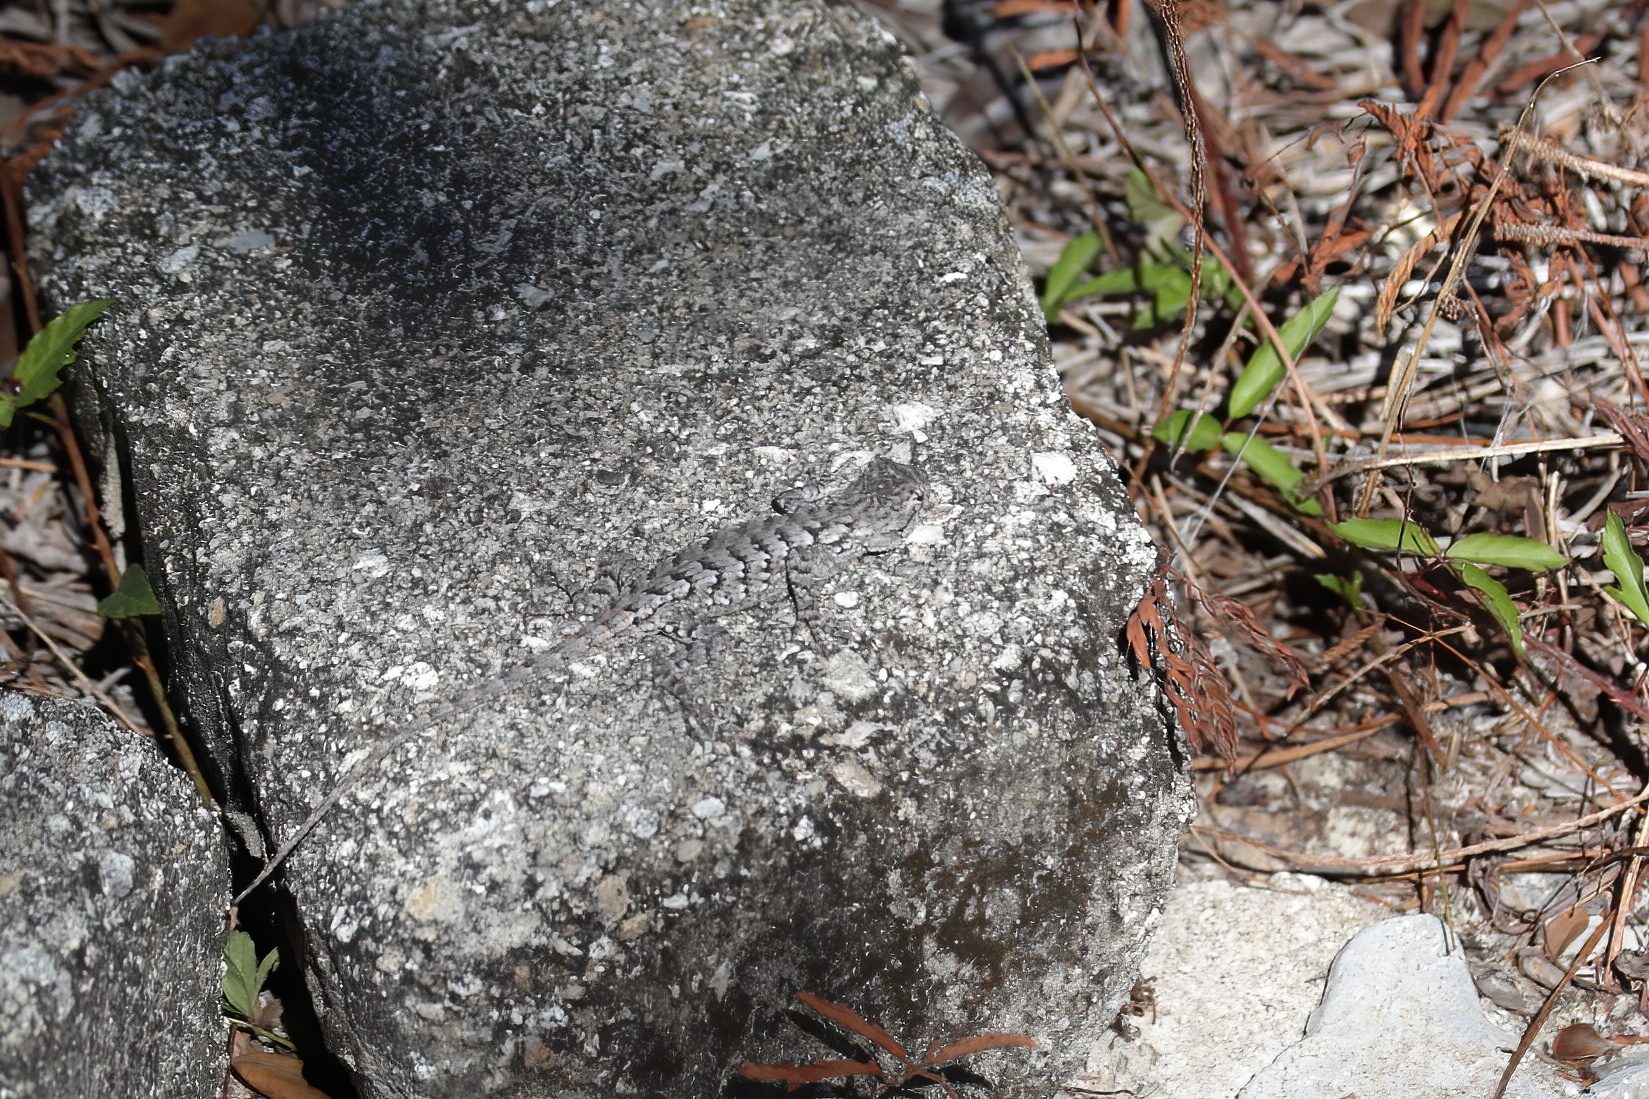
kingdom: Animalia
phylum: Chordata
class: Squamata
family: Phrynosomatidae
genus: Sceloporus
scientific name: Sceloporus undulatus
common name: Eastern fence lizard
